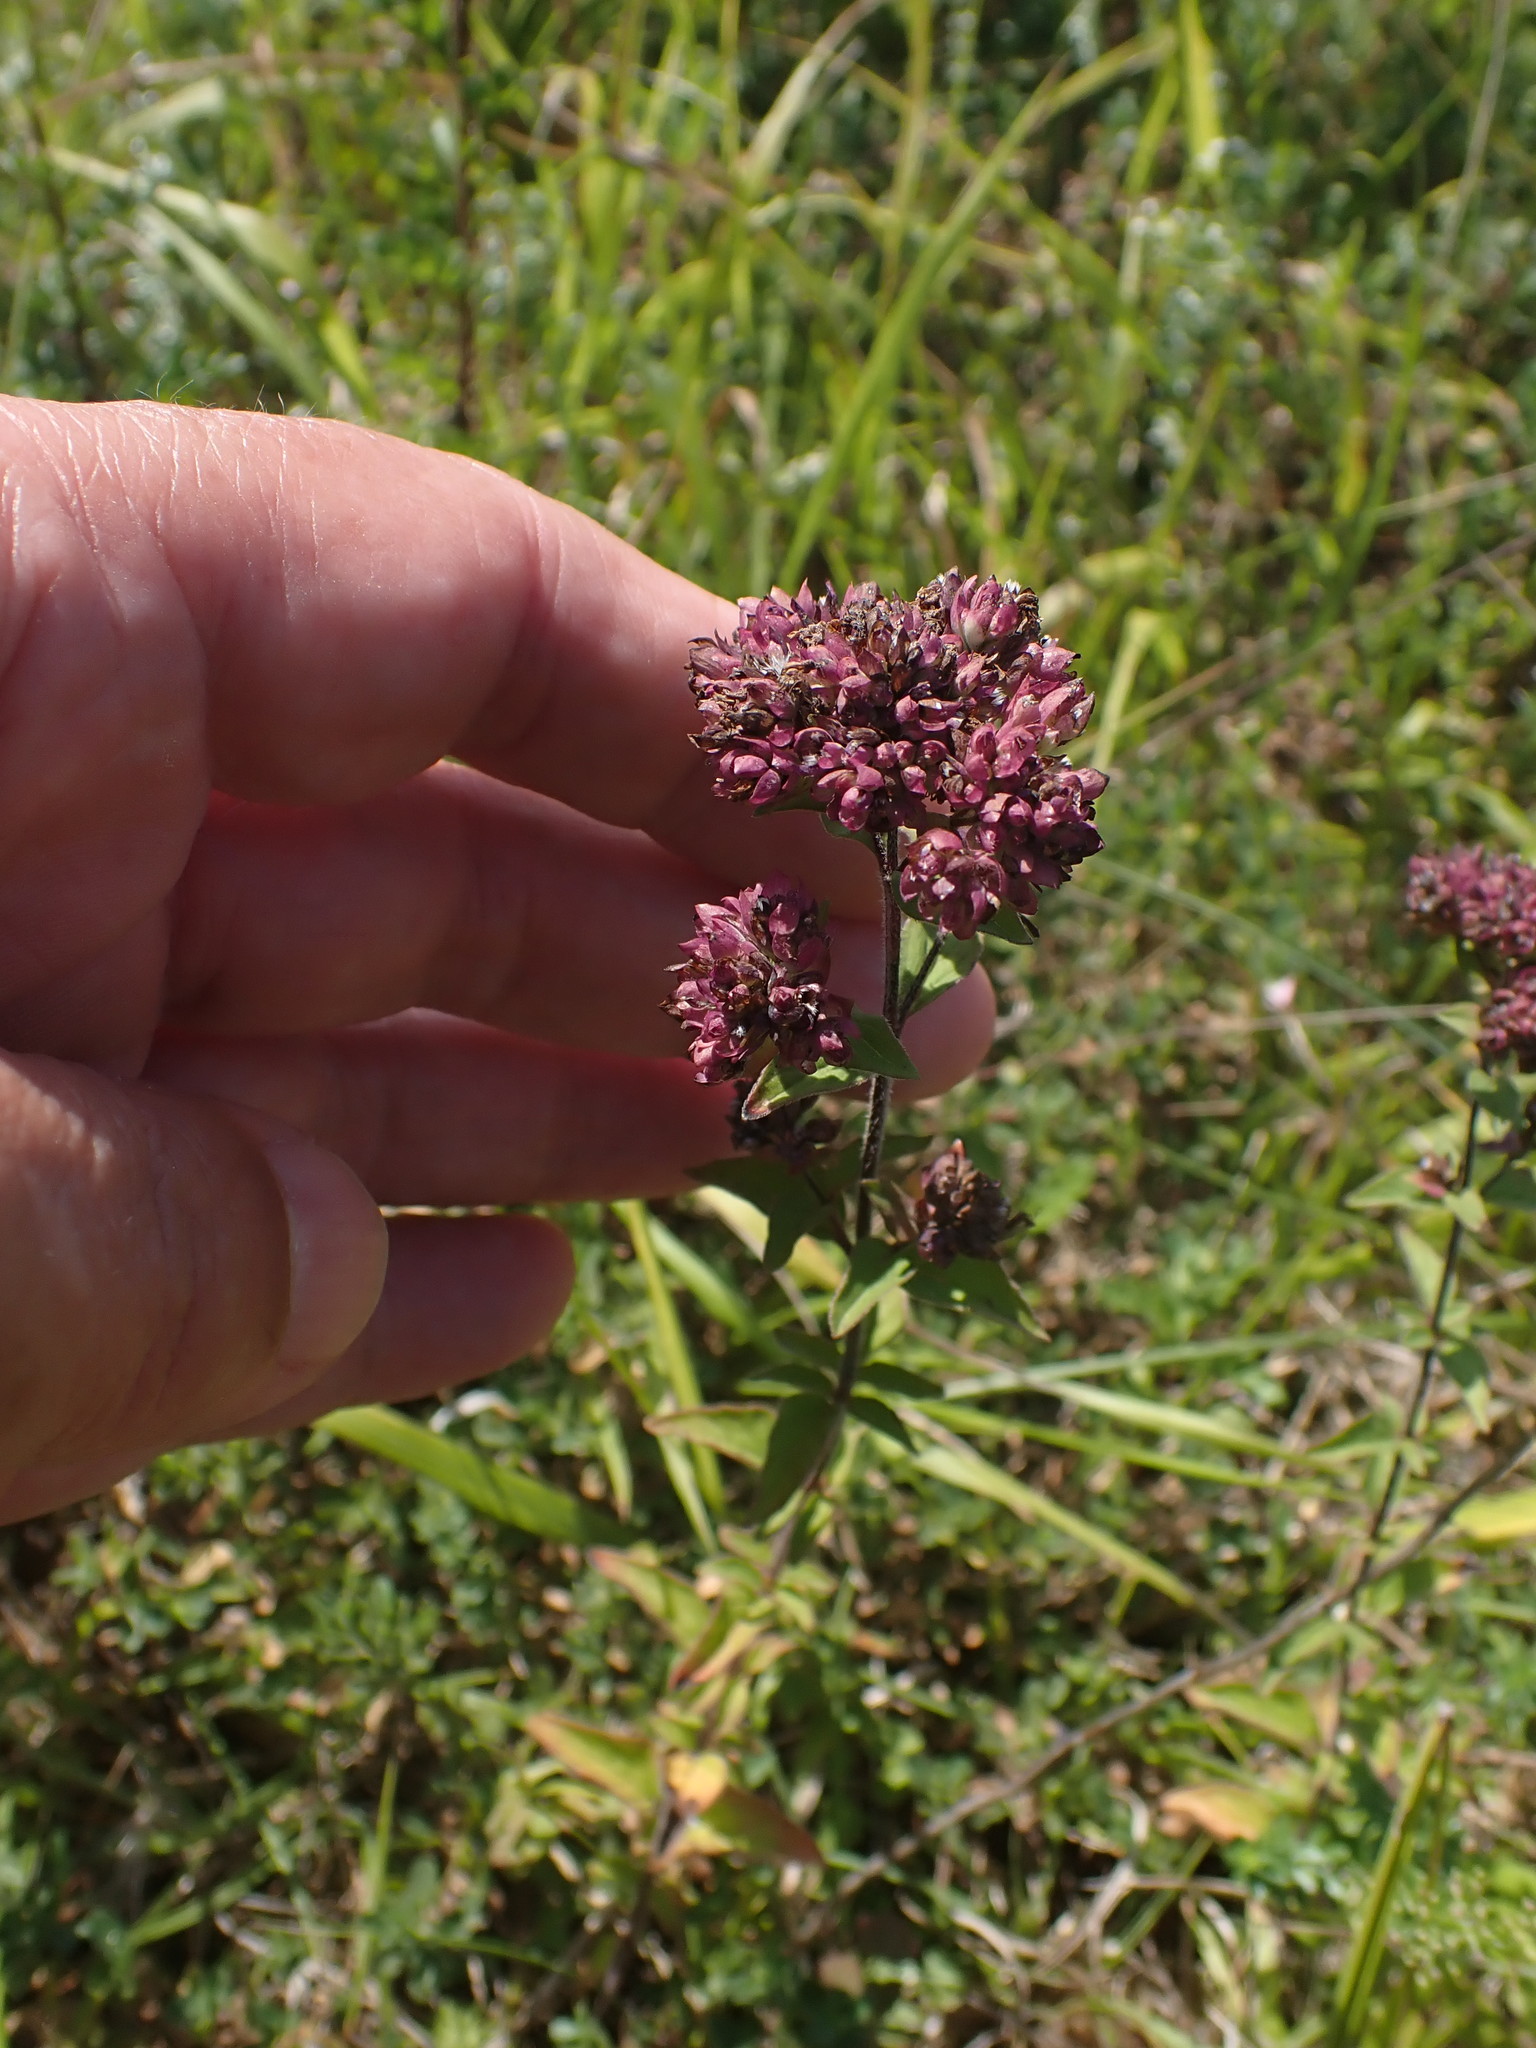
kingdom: Plantae
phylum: Tracheophyta
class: Magnoliopsida
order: Lamiales
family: Lamiaceae
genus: Origanum
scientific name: Origanum vulgare
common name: Wild marjoram
